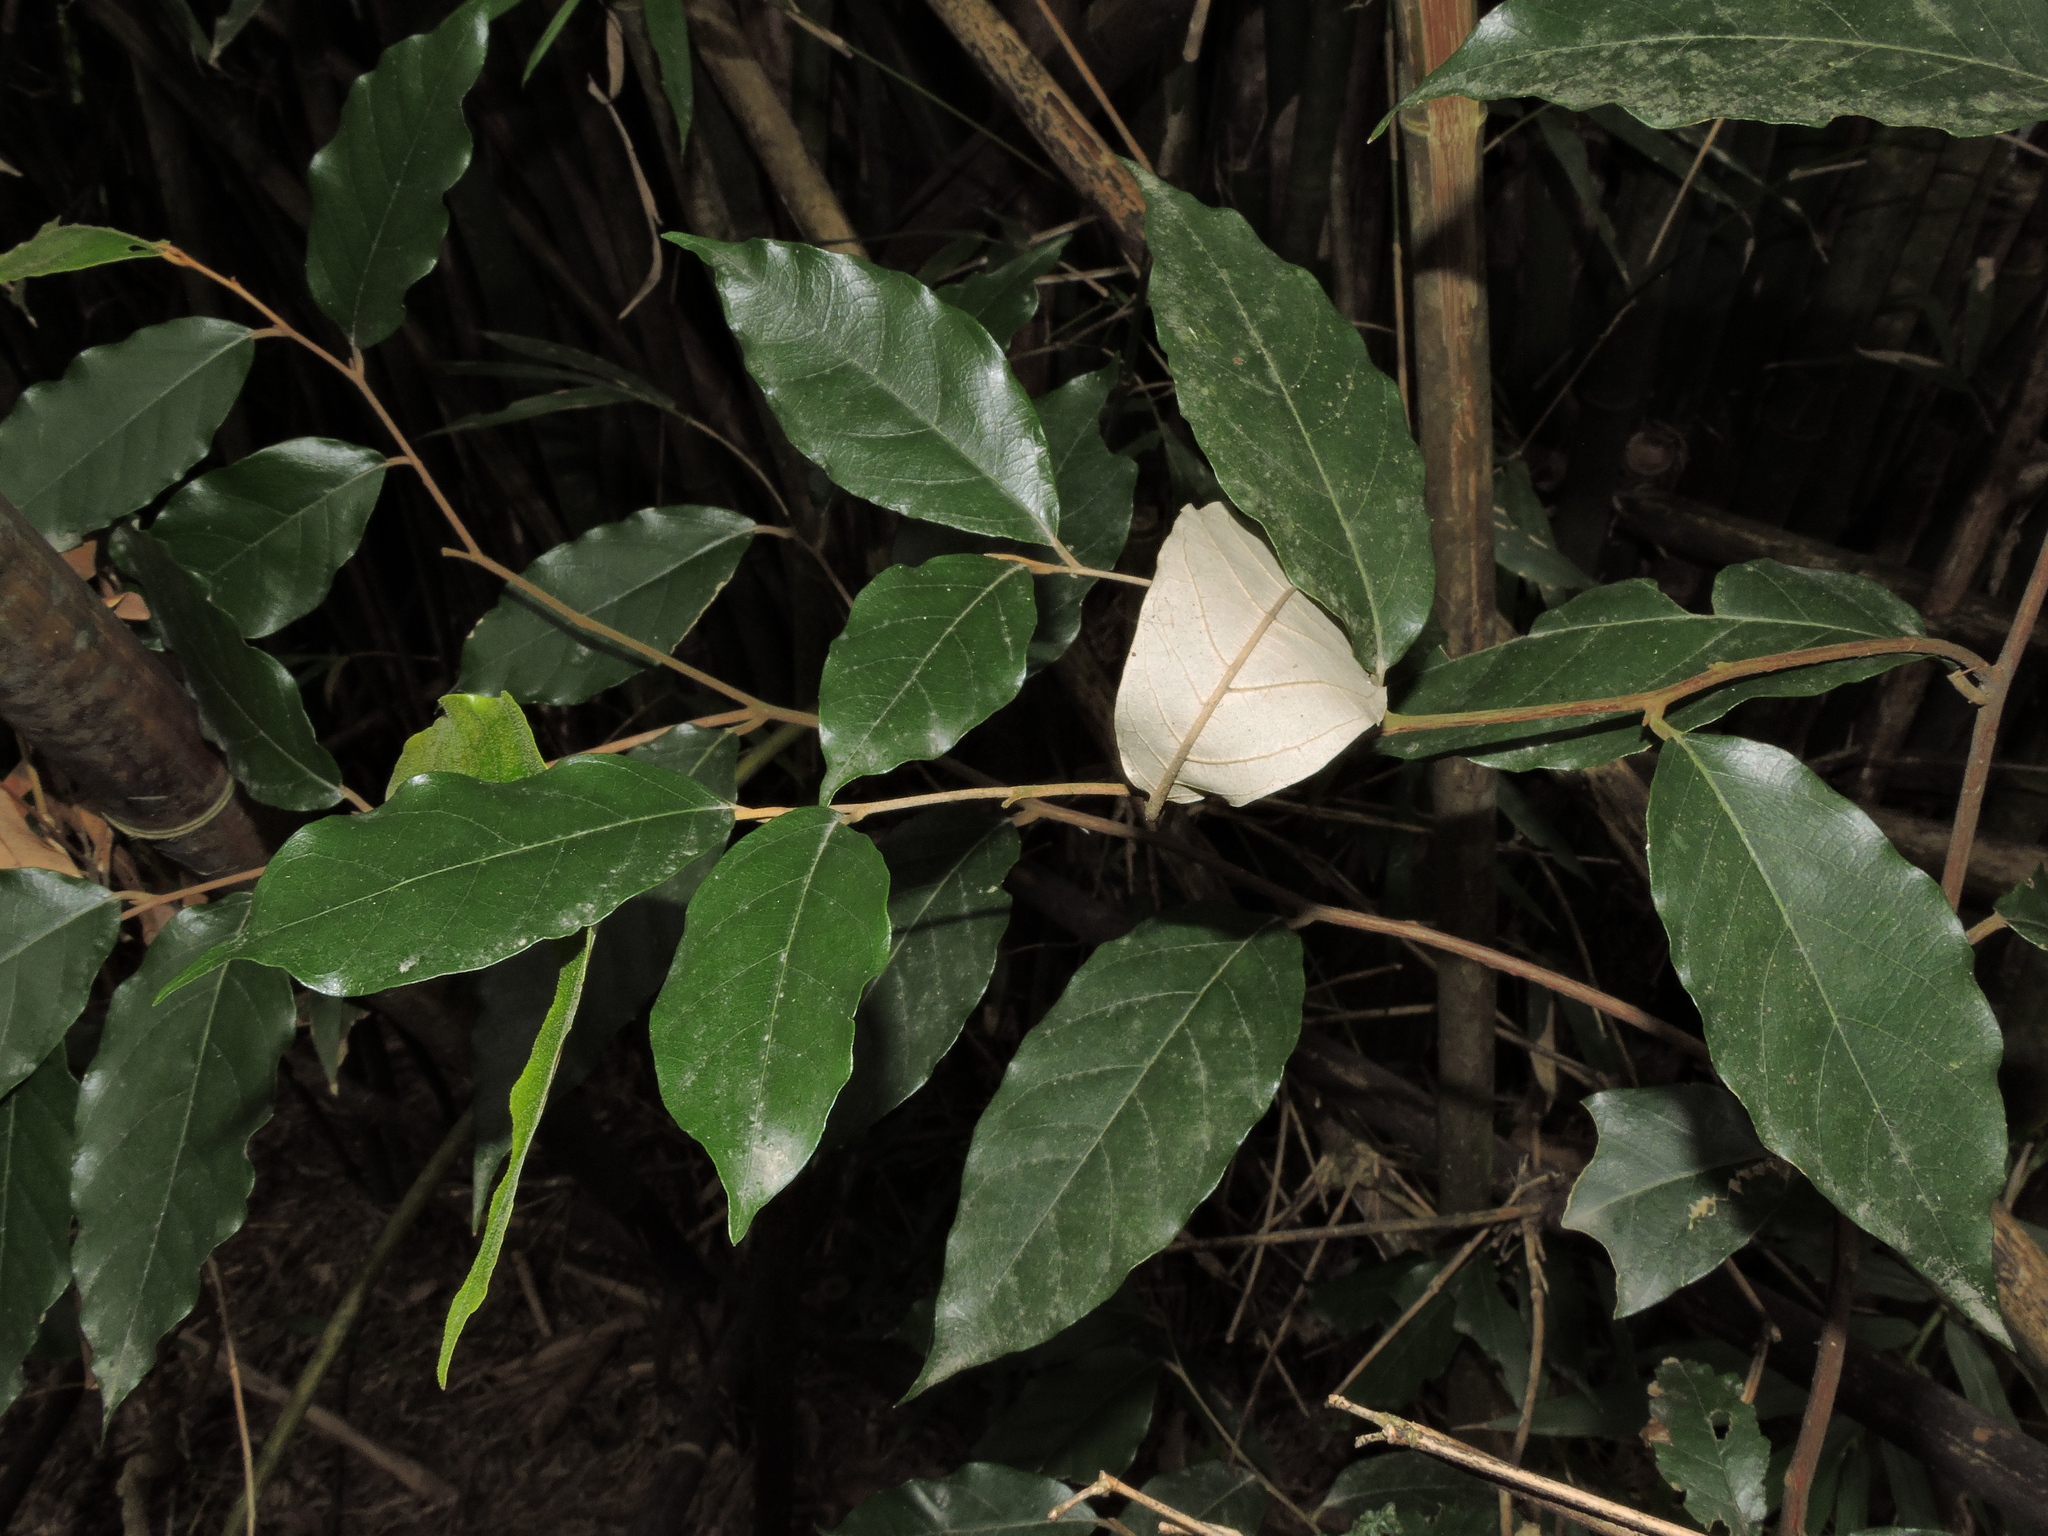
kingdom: Plantae
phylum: Tracheophyta
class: Magnoliopsida
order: Ericales
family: Styracaceae
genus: Styrax
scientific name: Styrax suberifolius
